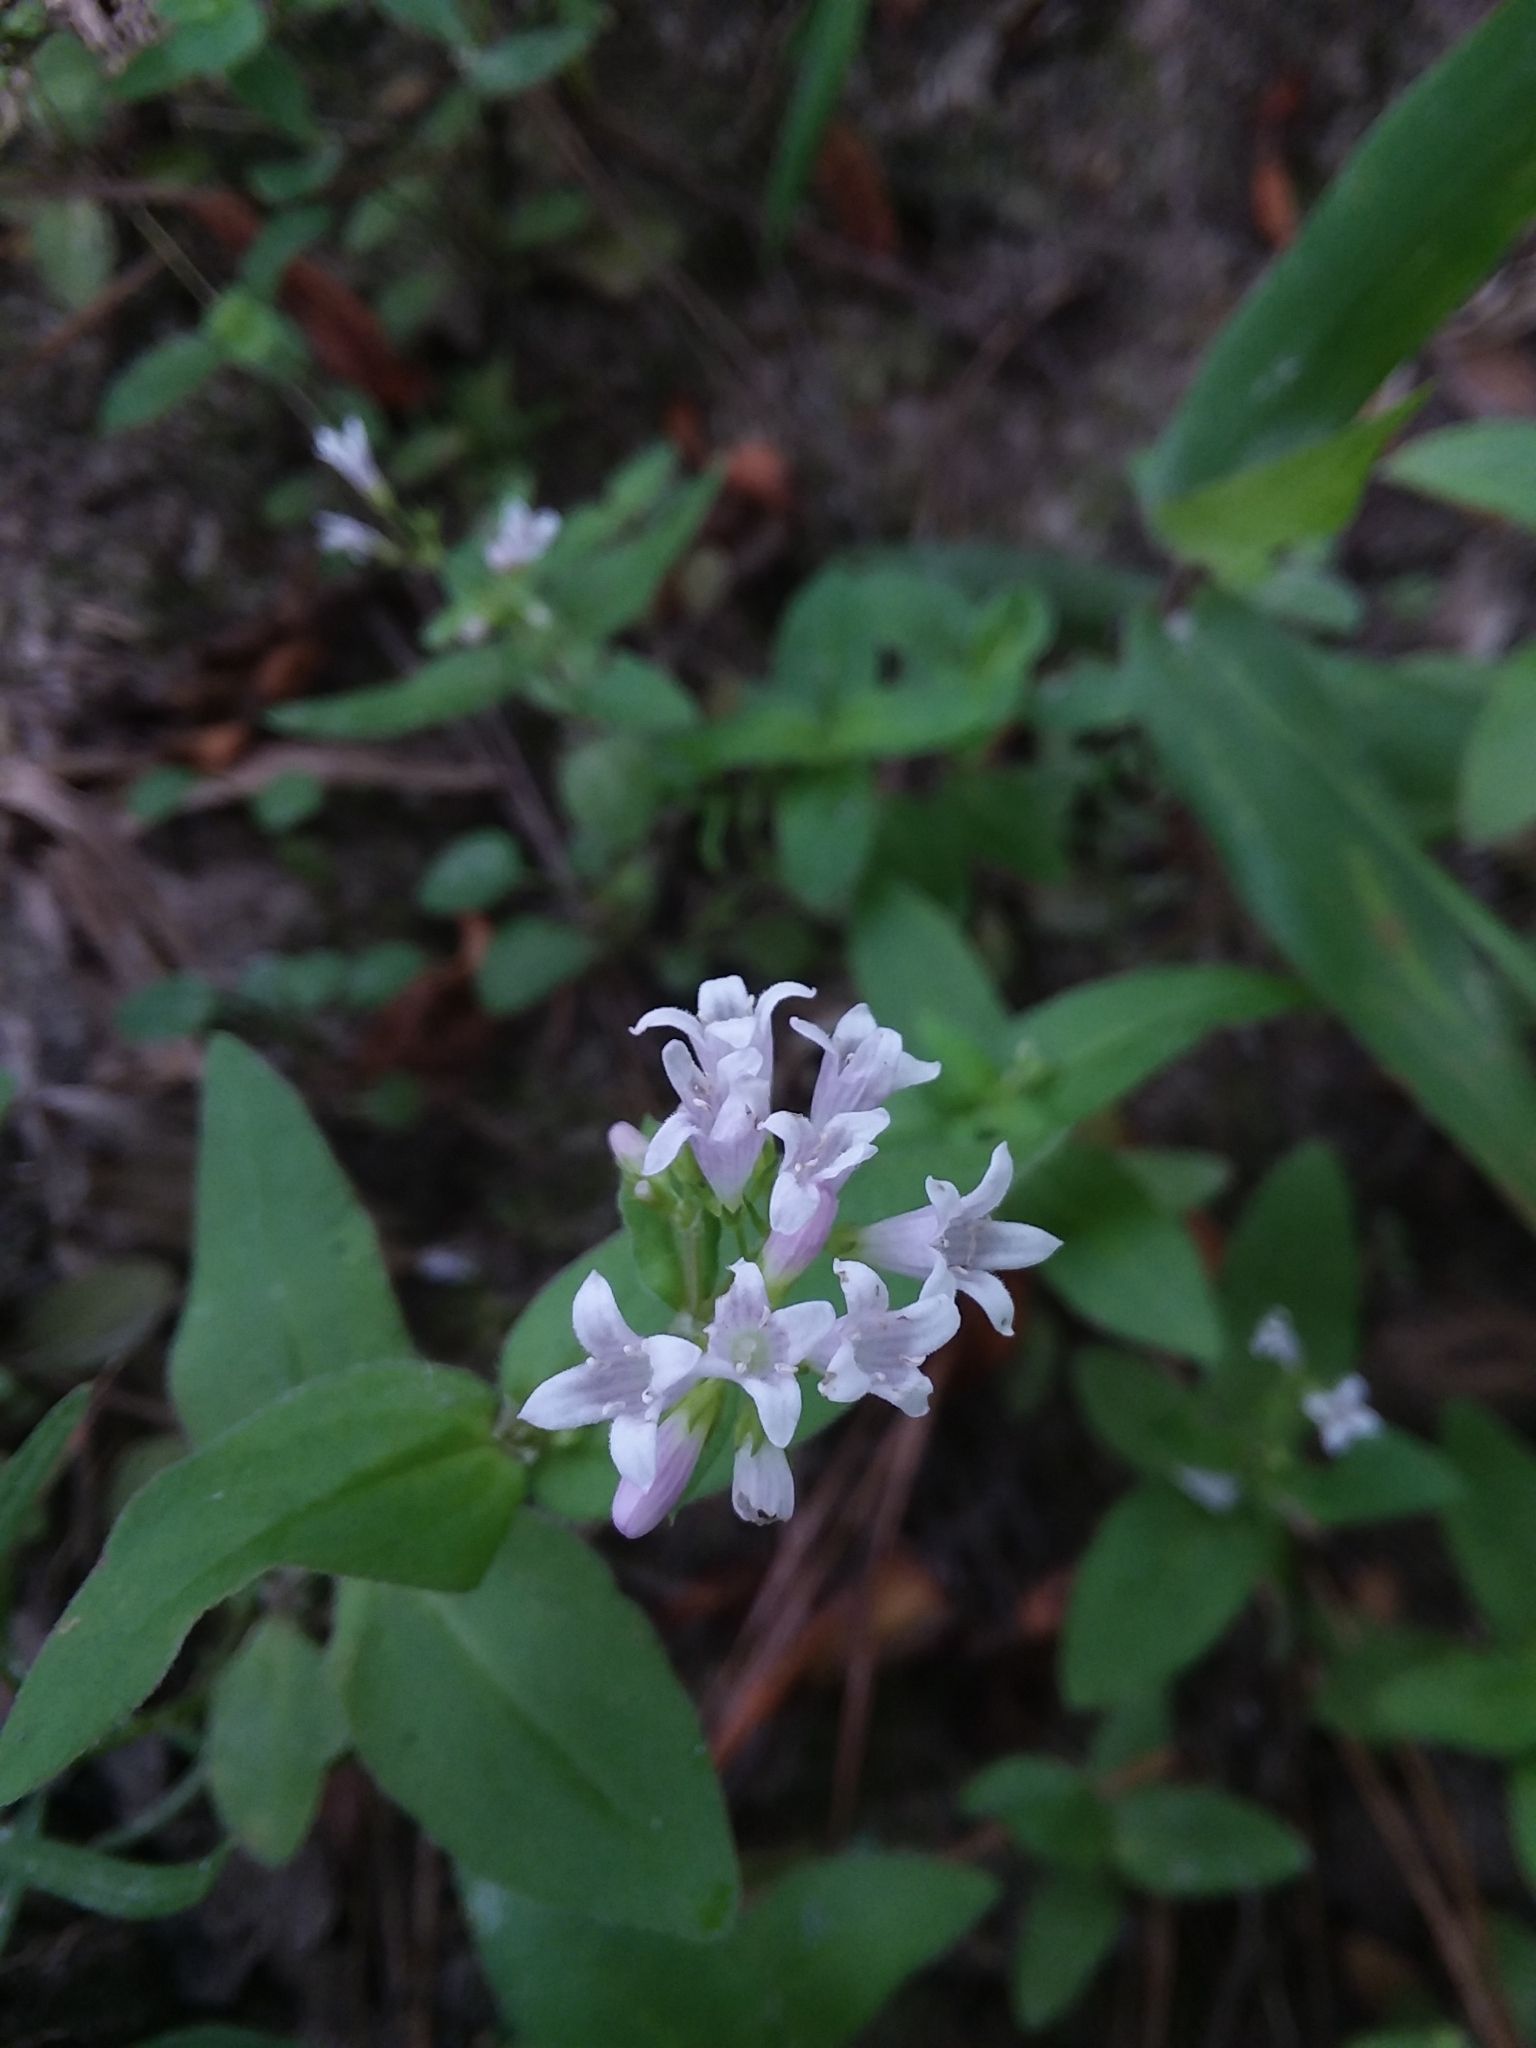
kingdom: Plantae
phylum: Tracheophyta
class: Magnoliopsida
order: Gentianales
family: Rubiaceae
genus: Houstonia
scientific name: Houstonia purpurea
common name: Summer bluet
